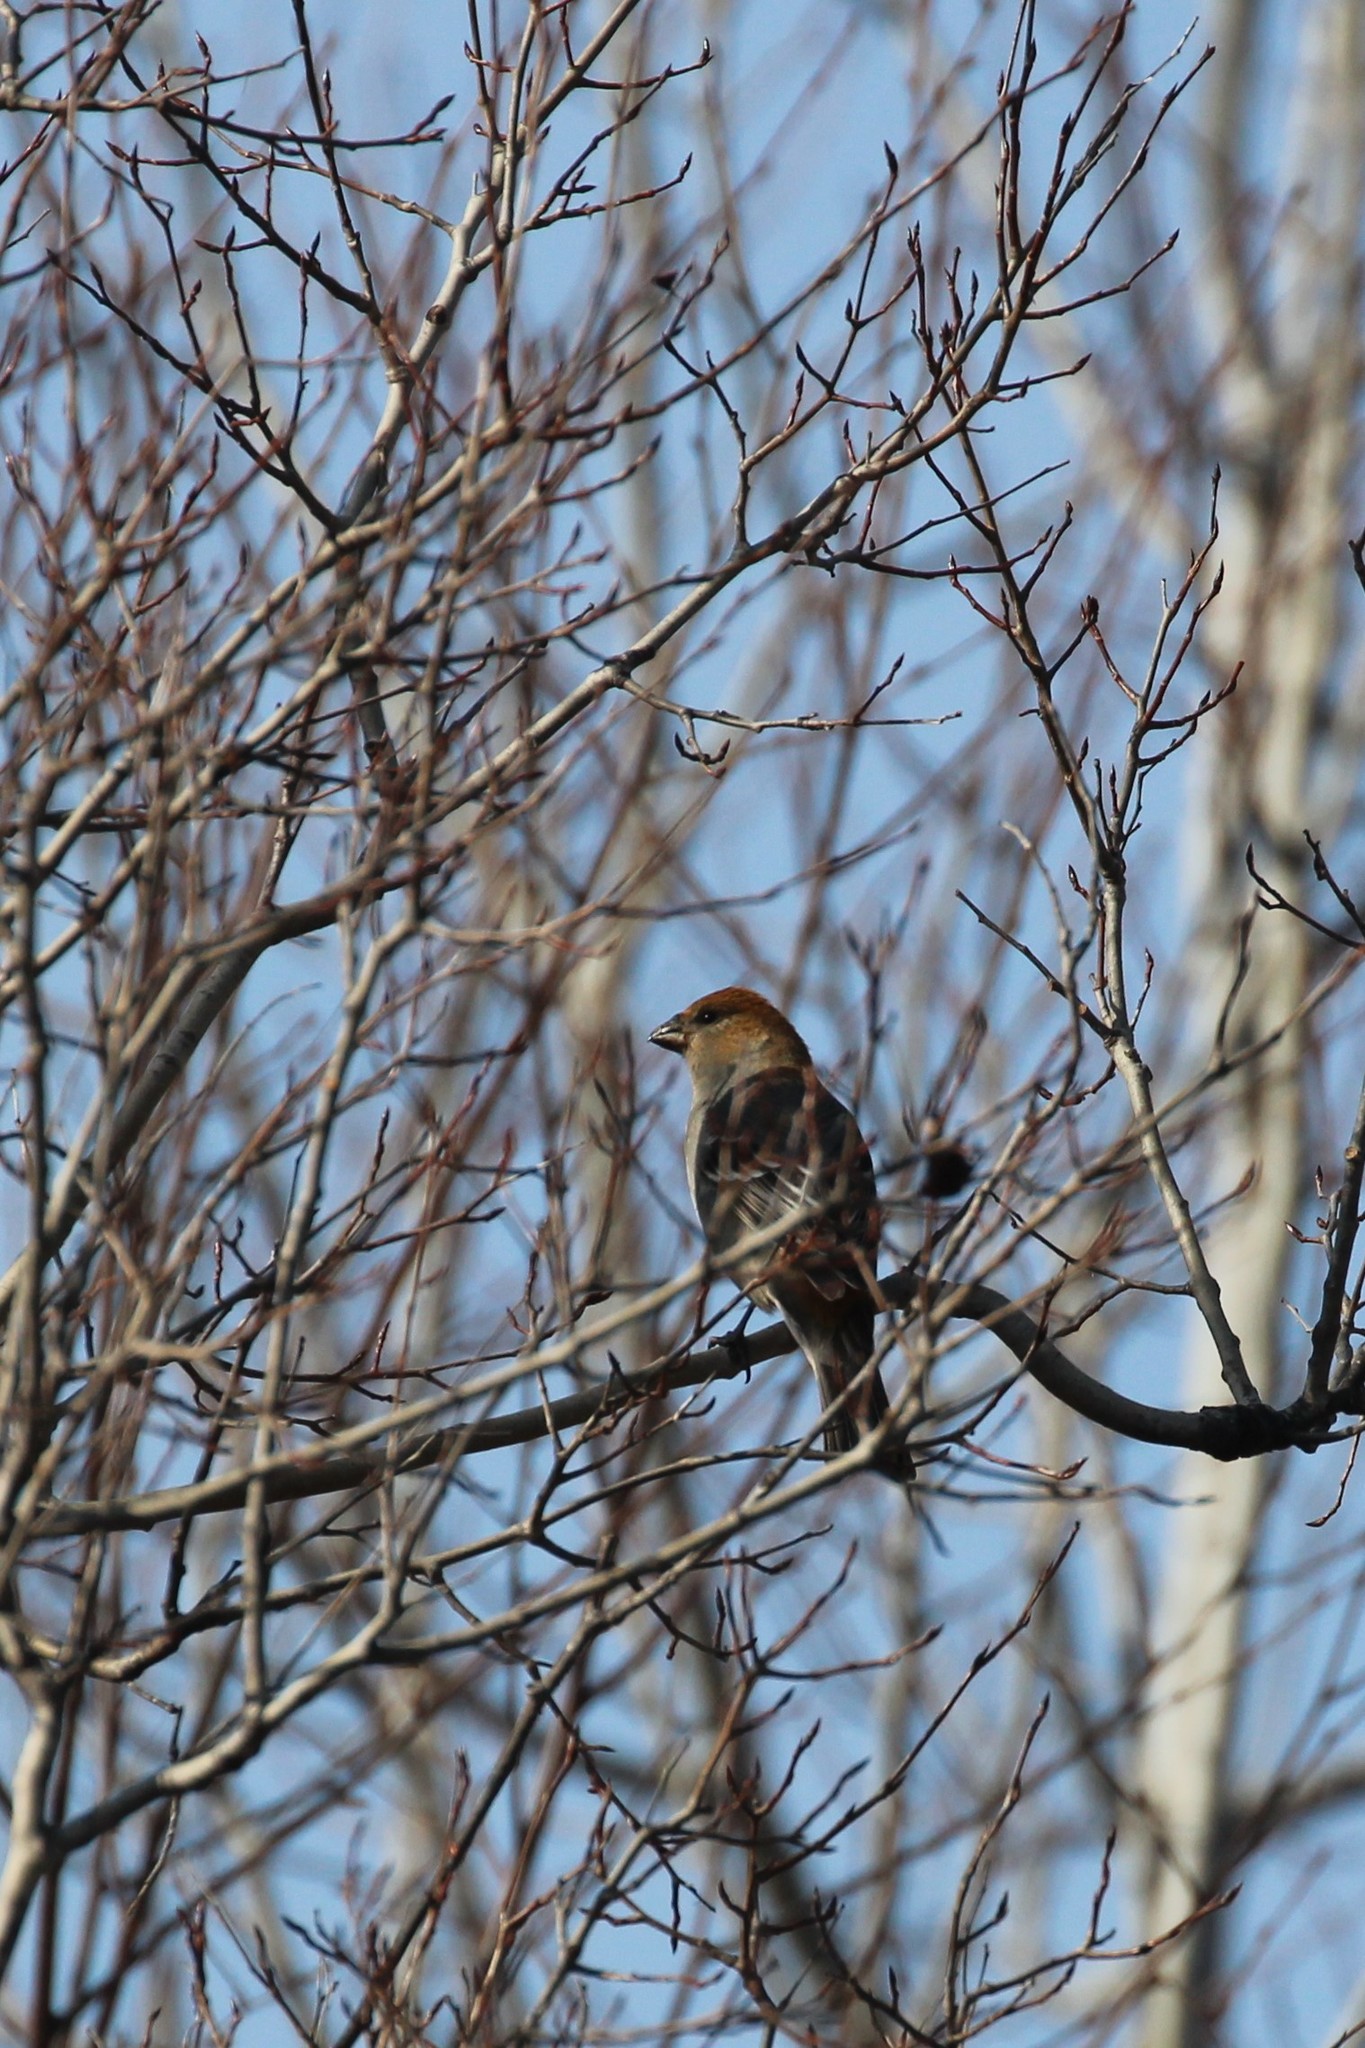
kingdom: Animalia
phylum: Chordata
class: Aves
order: Passeriformes
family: Fringillidae
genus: Pinicola
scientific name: Pinicola enucleator
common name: Pine grosbeak
